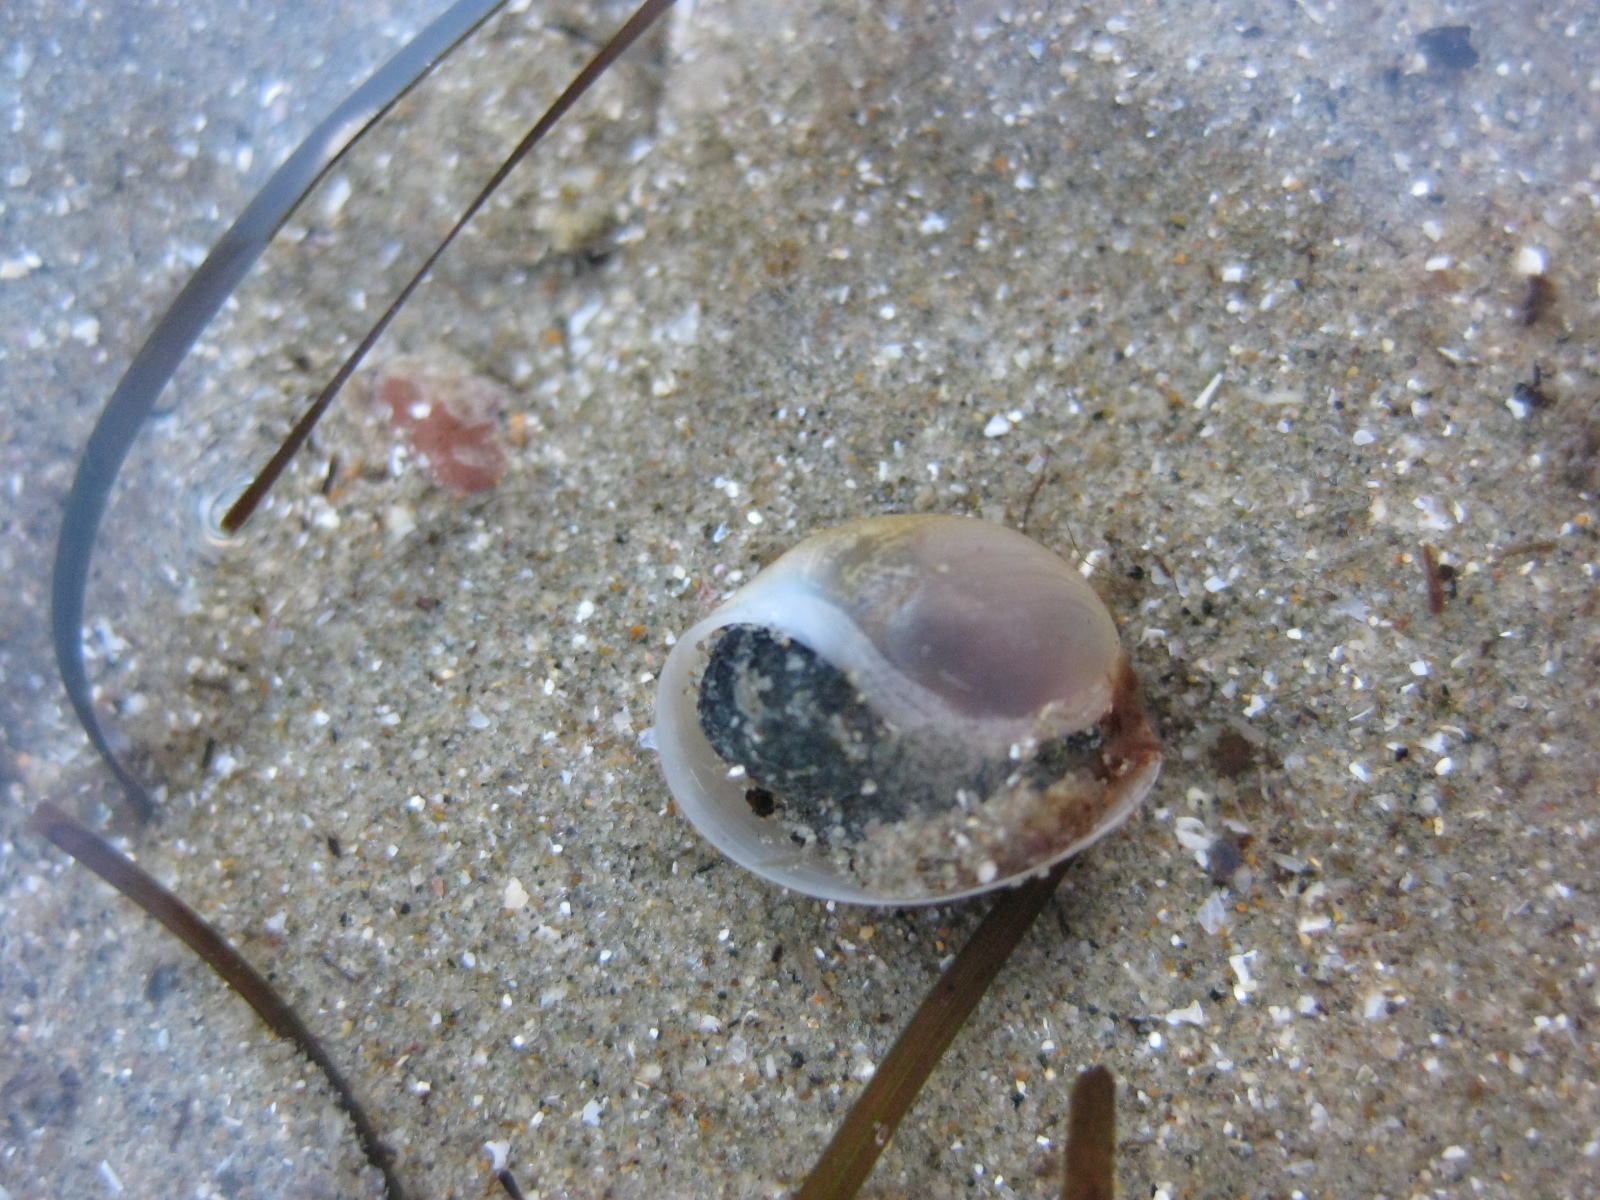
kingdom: Animalia
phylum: Mollusca
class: Gastropoda
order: Cephalaspidea
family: Haminoeidae
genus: Papawera
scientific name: Papawera zelandiae
